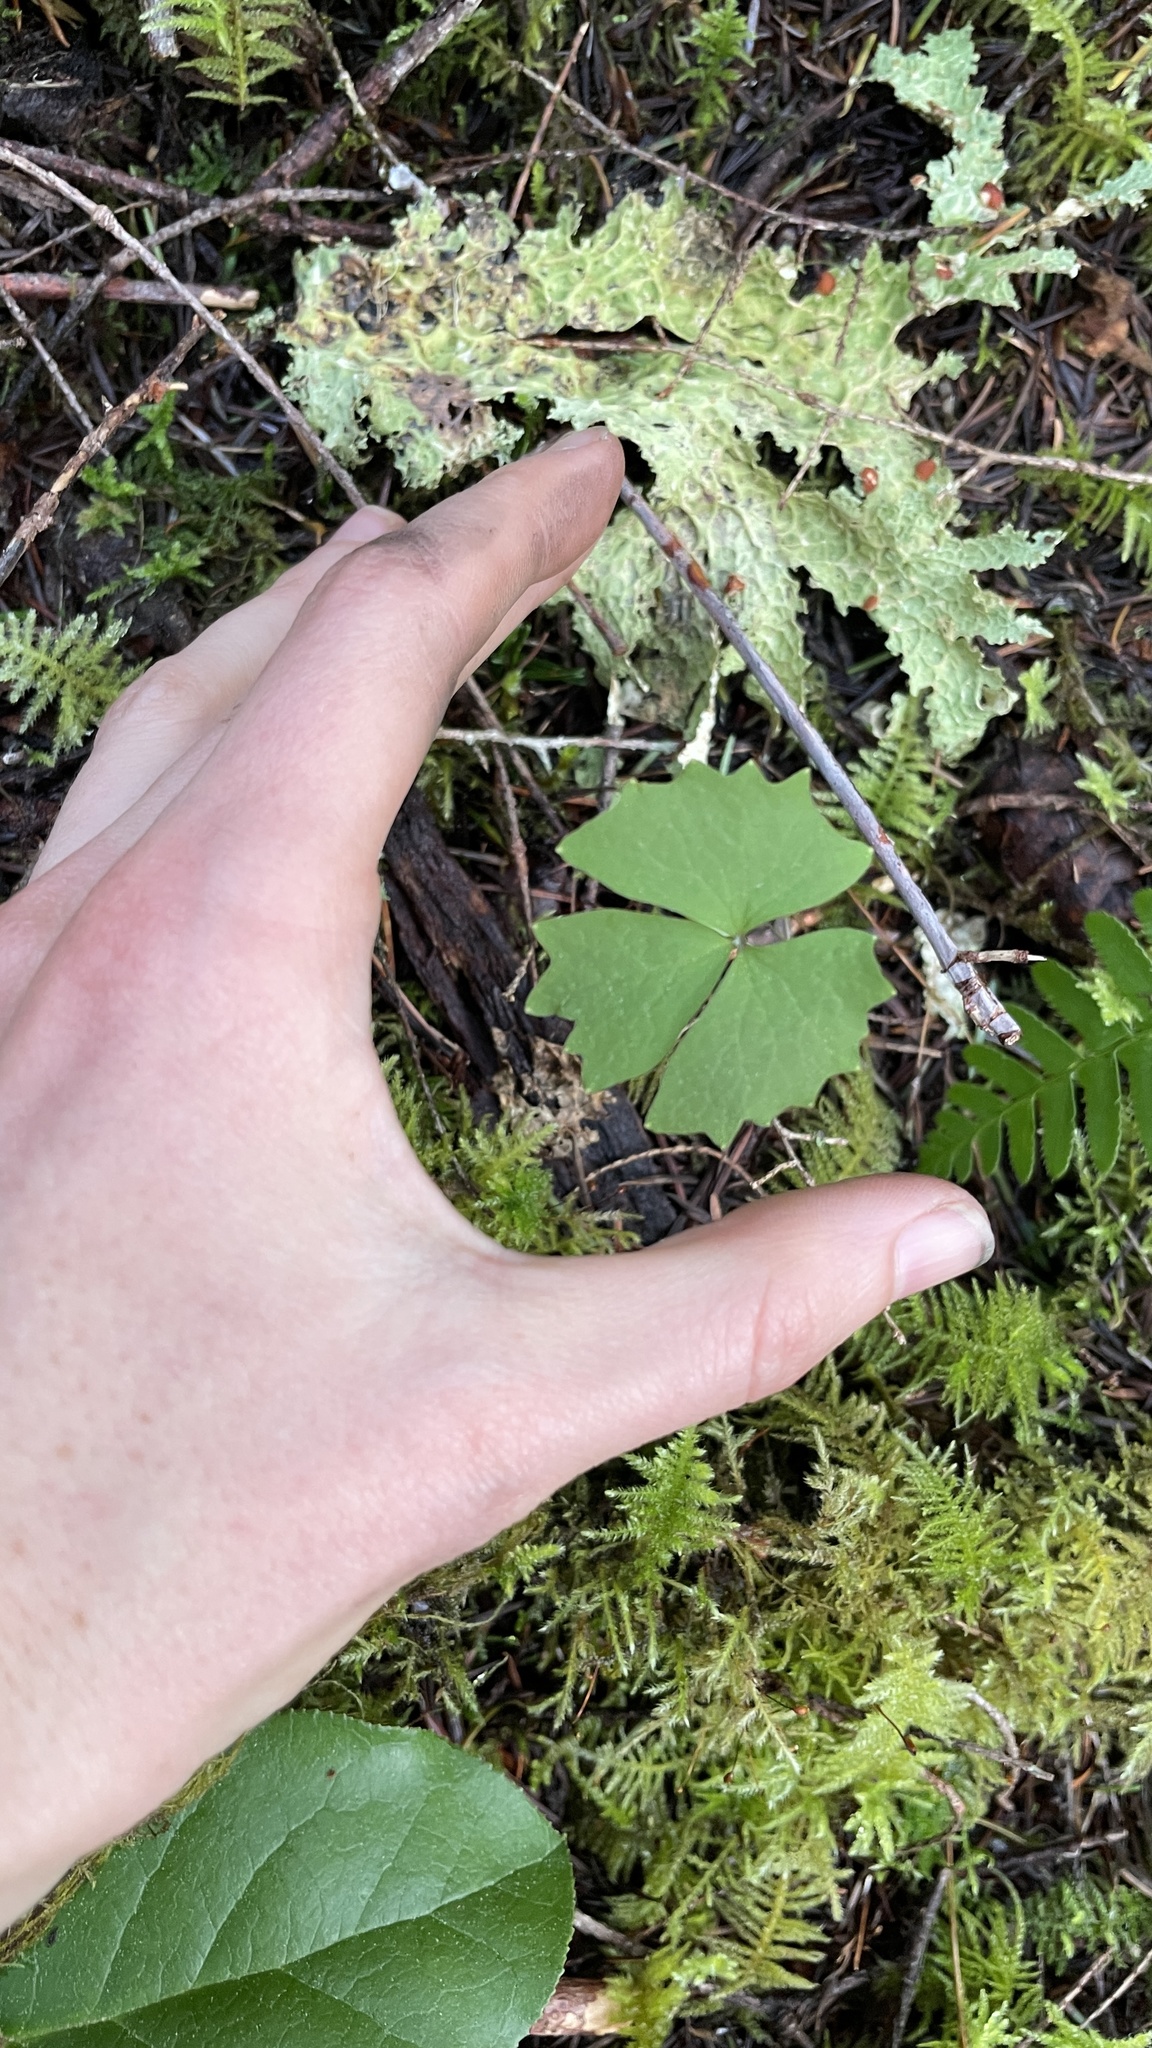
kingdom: Plantae
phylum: Tracheophyta
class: Magnoliopsida
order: Ranunculales
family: Berberidaceae
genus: Achlys
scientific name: Achlys triphylla
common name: Vanilla-leaf
